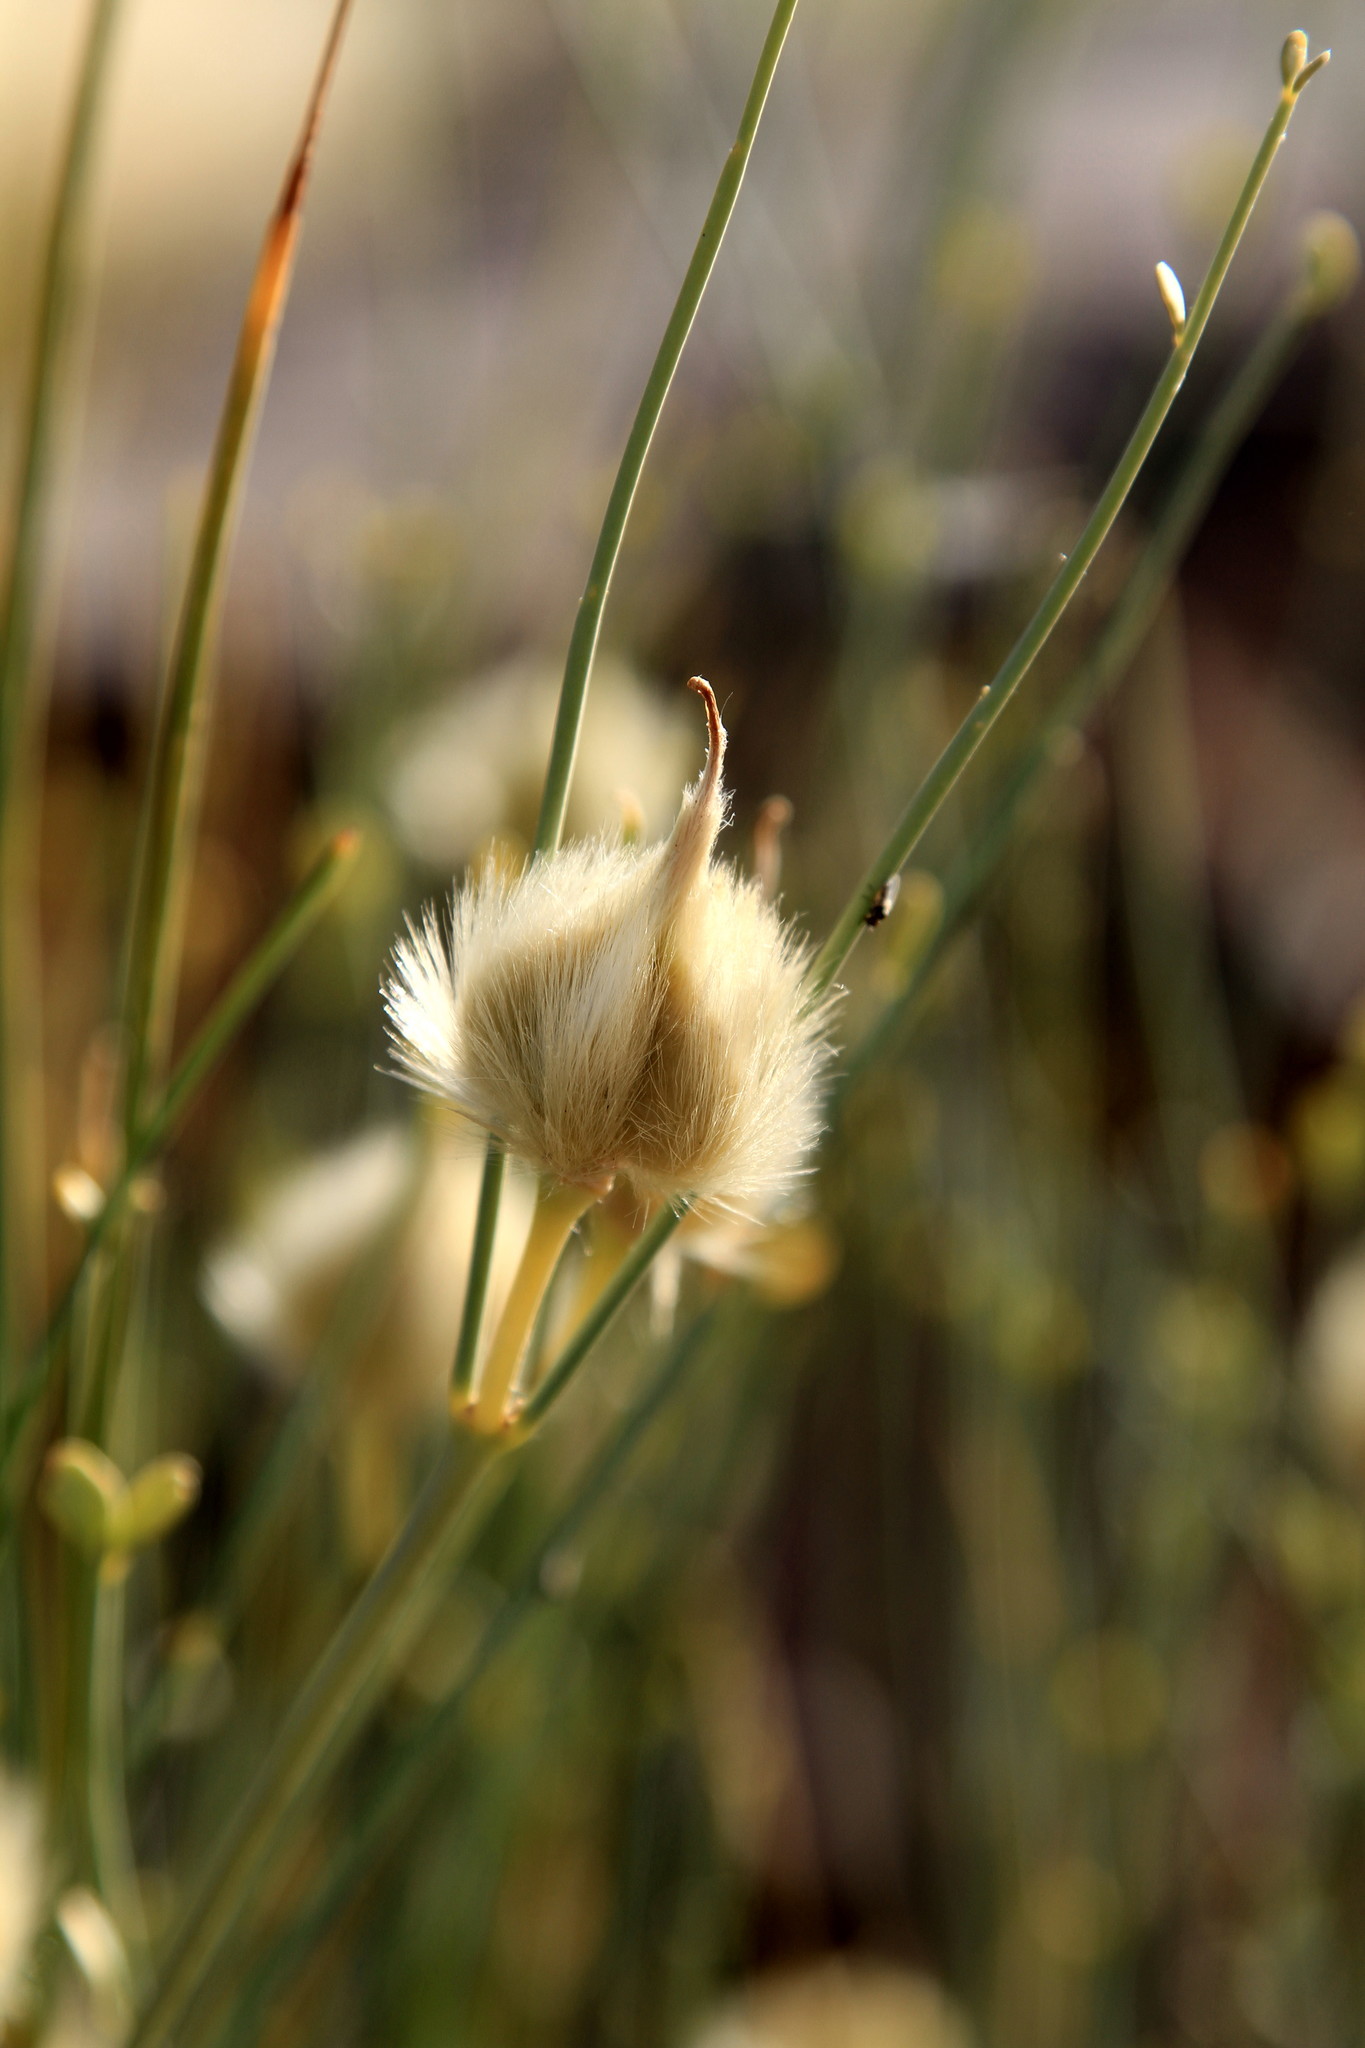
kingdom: Plantae
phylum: Tracheophyta
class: Magnoliopsida
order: Zygophyllales
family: Zygophyllaceae
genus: Sisyndite
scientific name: Sisyndite spartea
